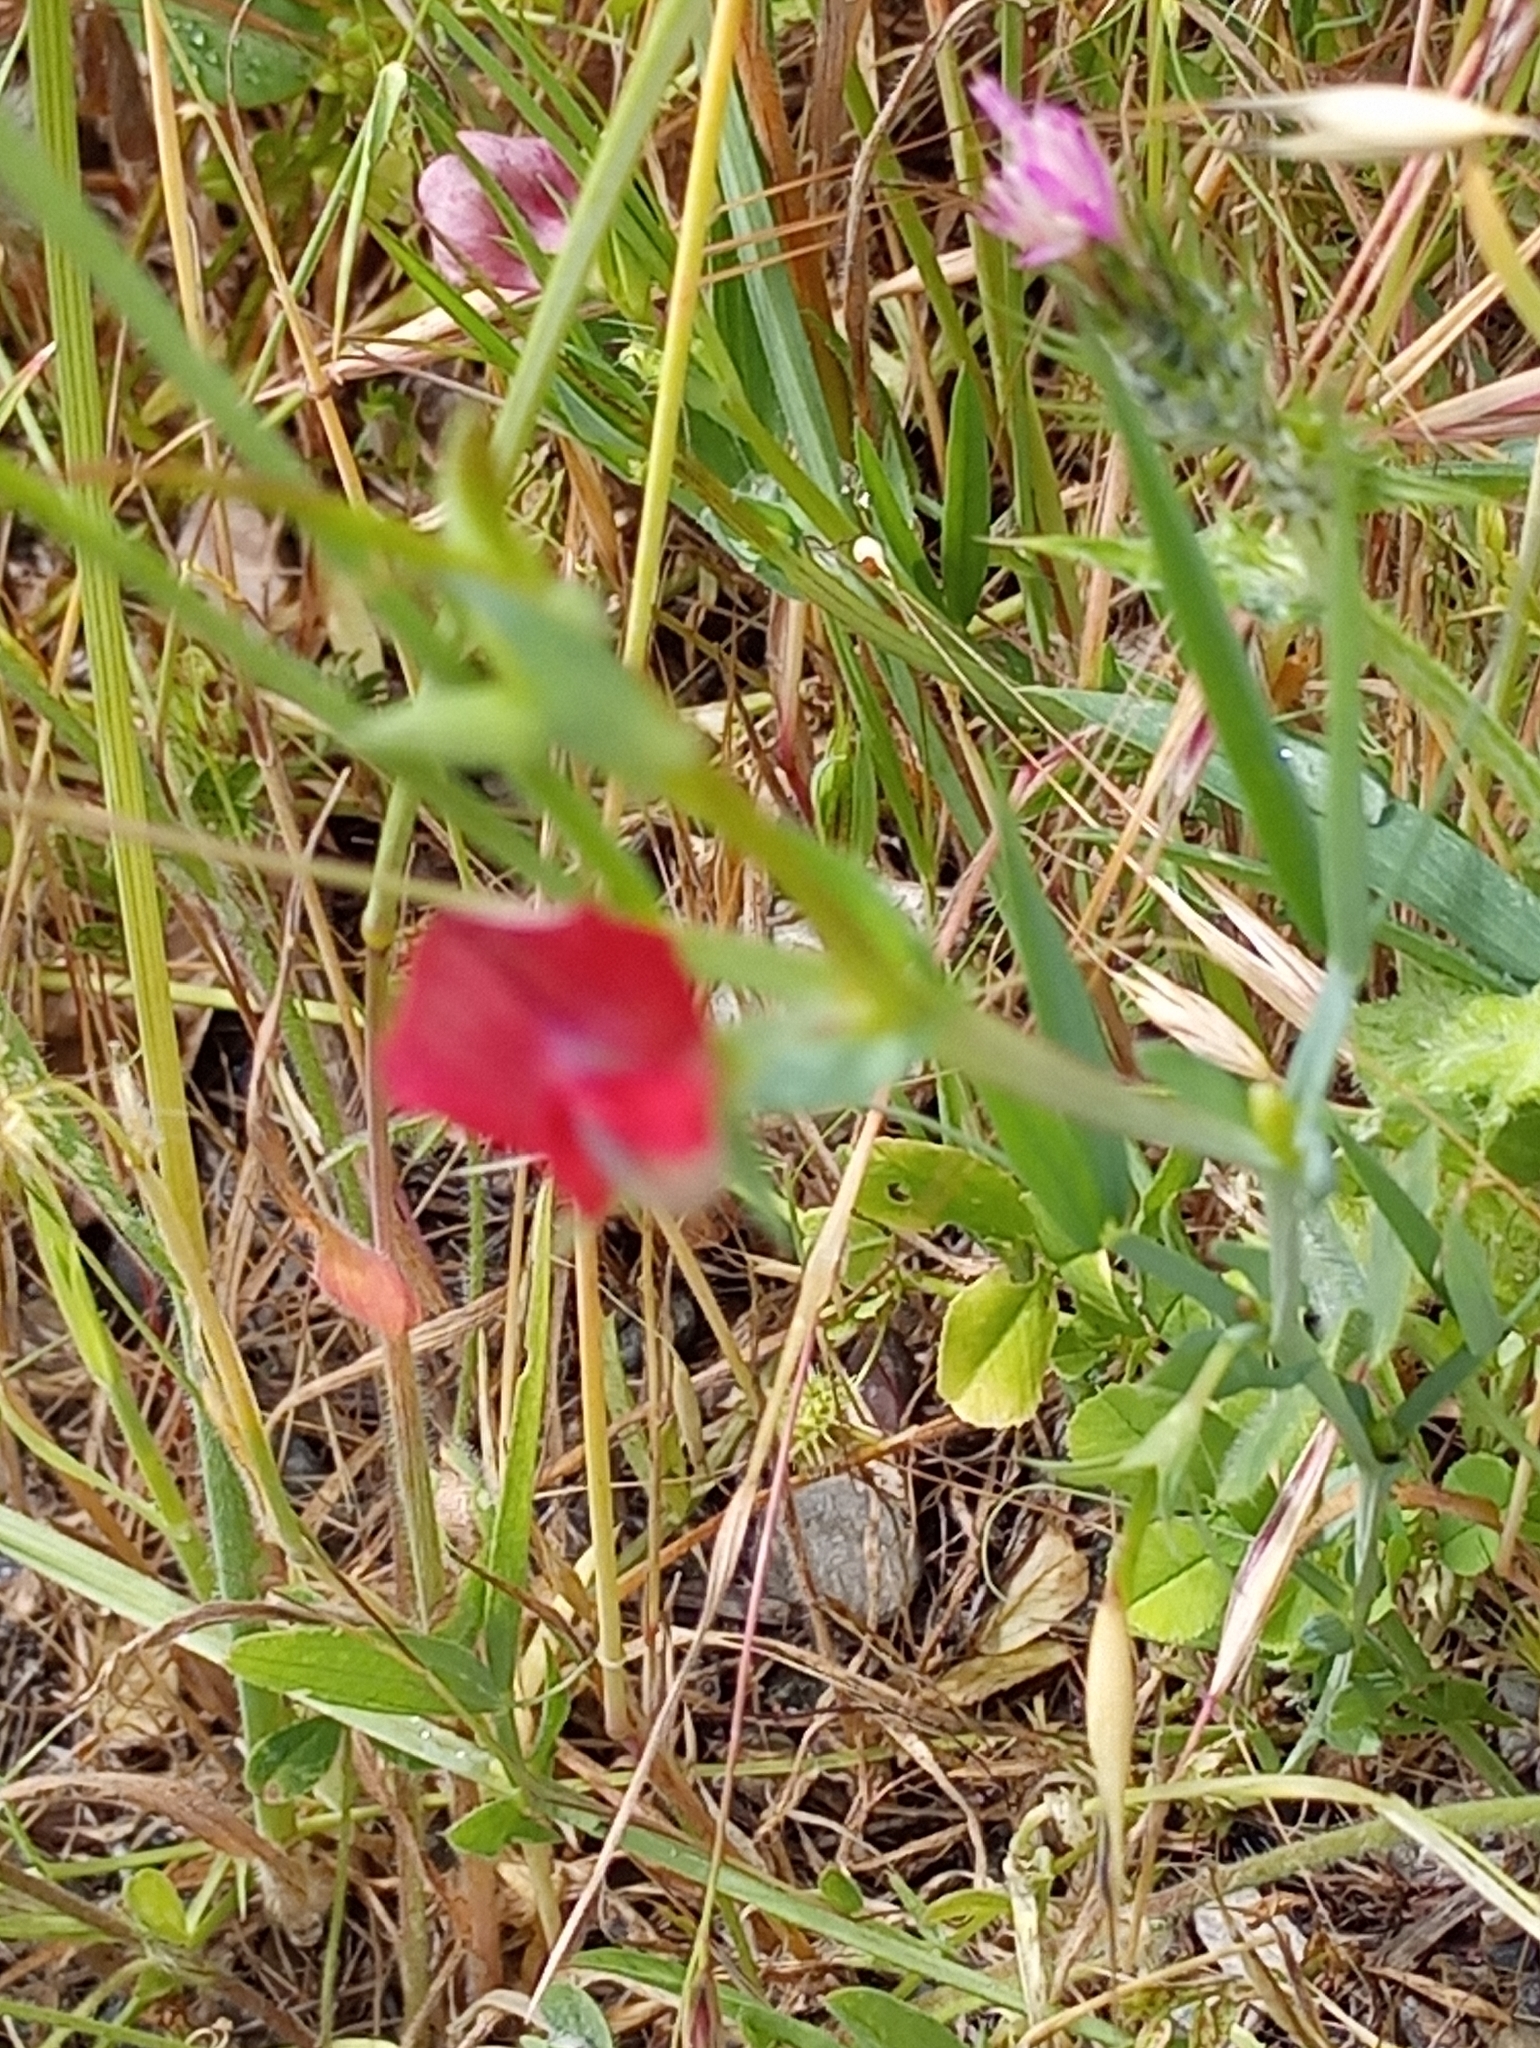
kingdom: Plantae
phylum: Tracheophyta
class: Magnoliopsida
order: Fabales
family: Fabaceae
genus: Lathyrus
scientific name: Lathyrus cicera
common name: Red vetchling
